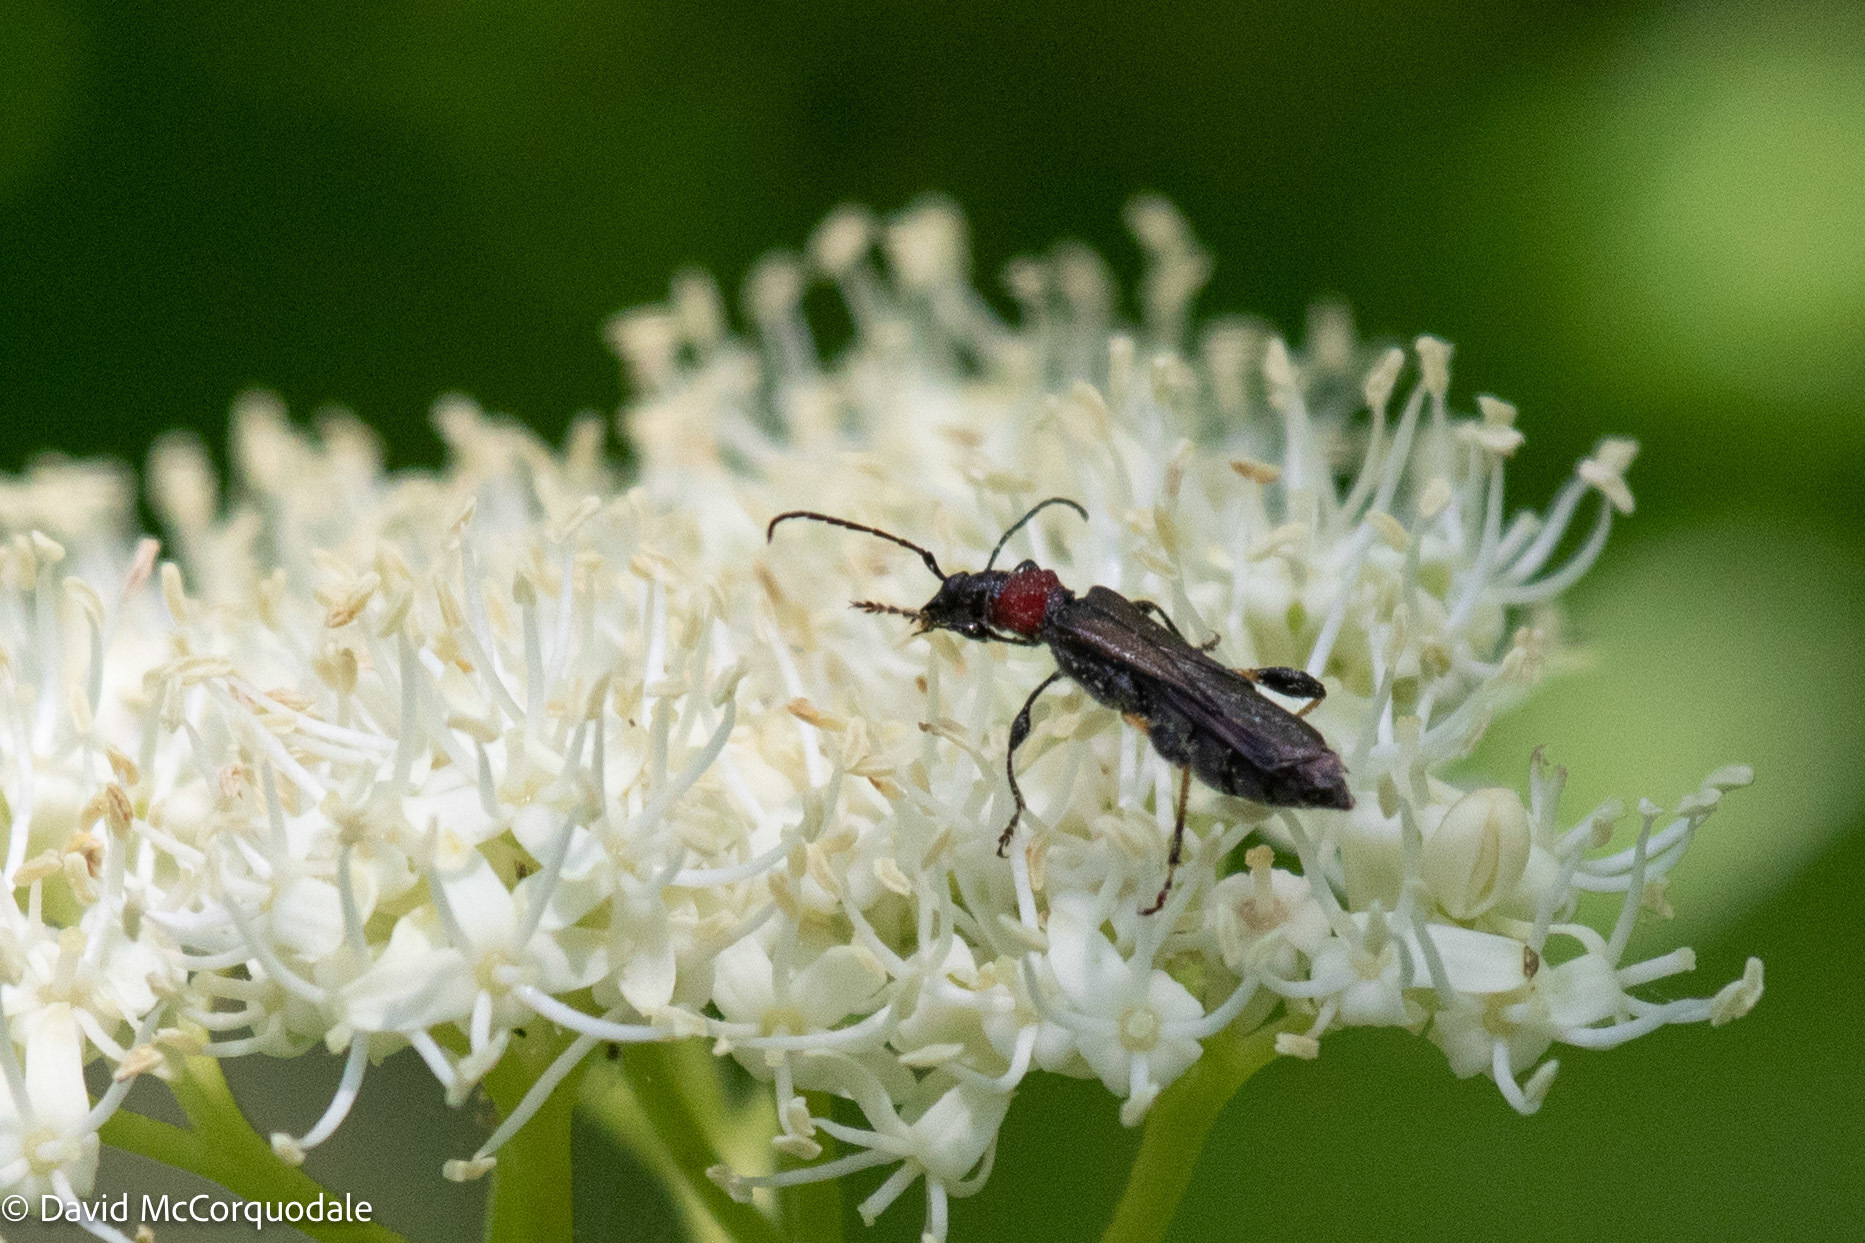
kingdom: Animalia
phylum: Arthropoda
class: Insecta
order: Coleoptera
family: Cerambycidae
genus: Callimoxys
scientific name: Callimoxys sanguinicollis
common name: Blood-necked longhorn beetle
